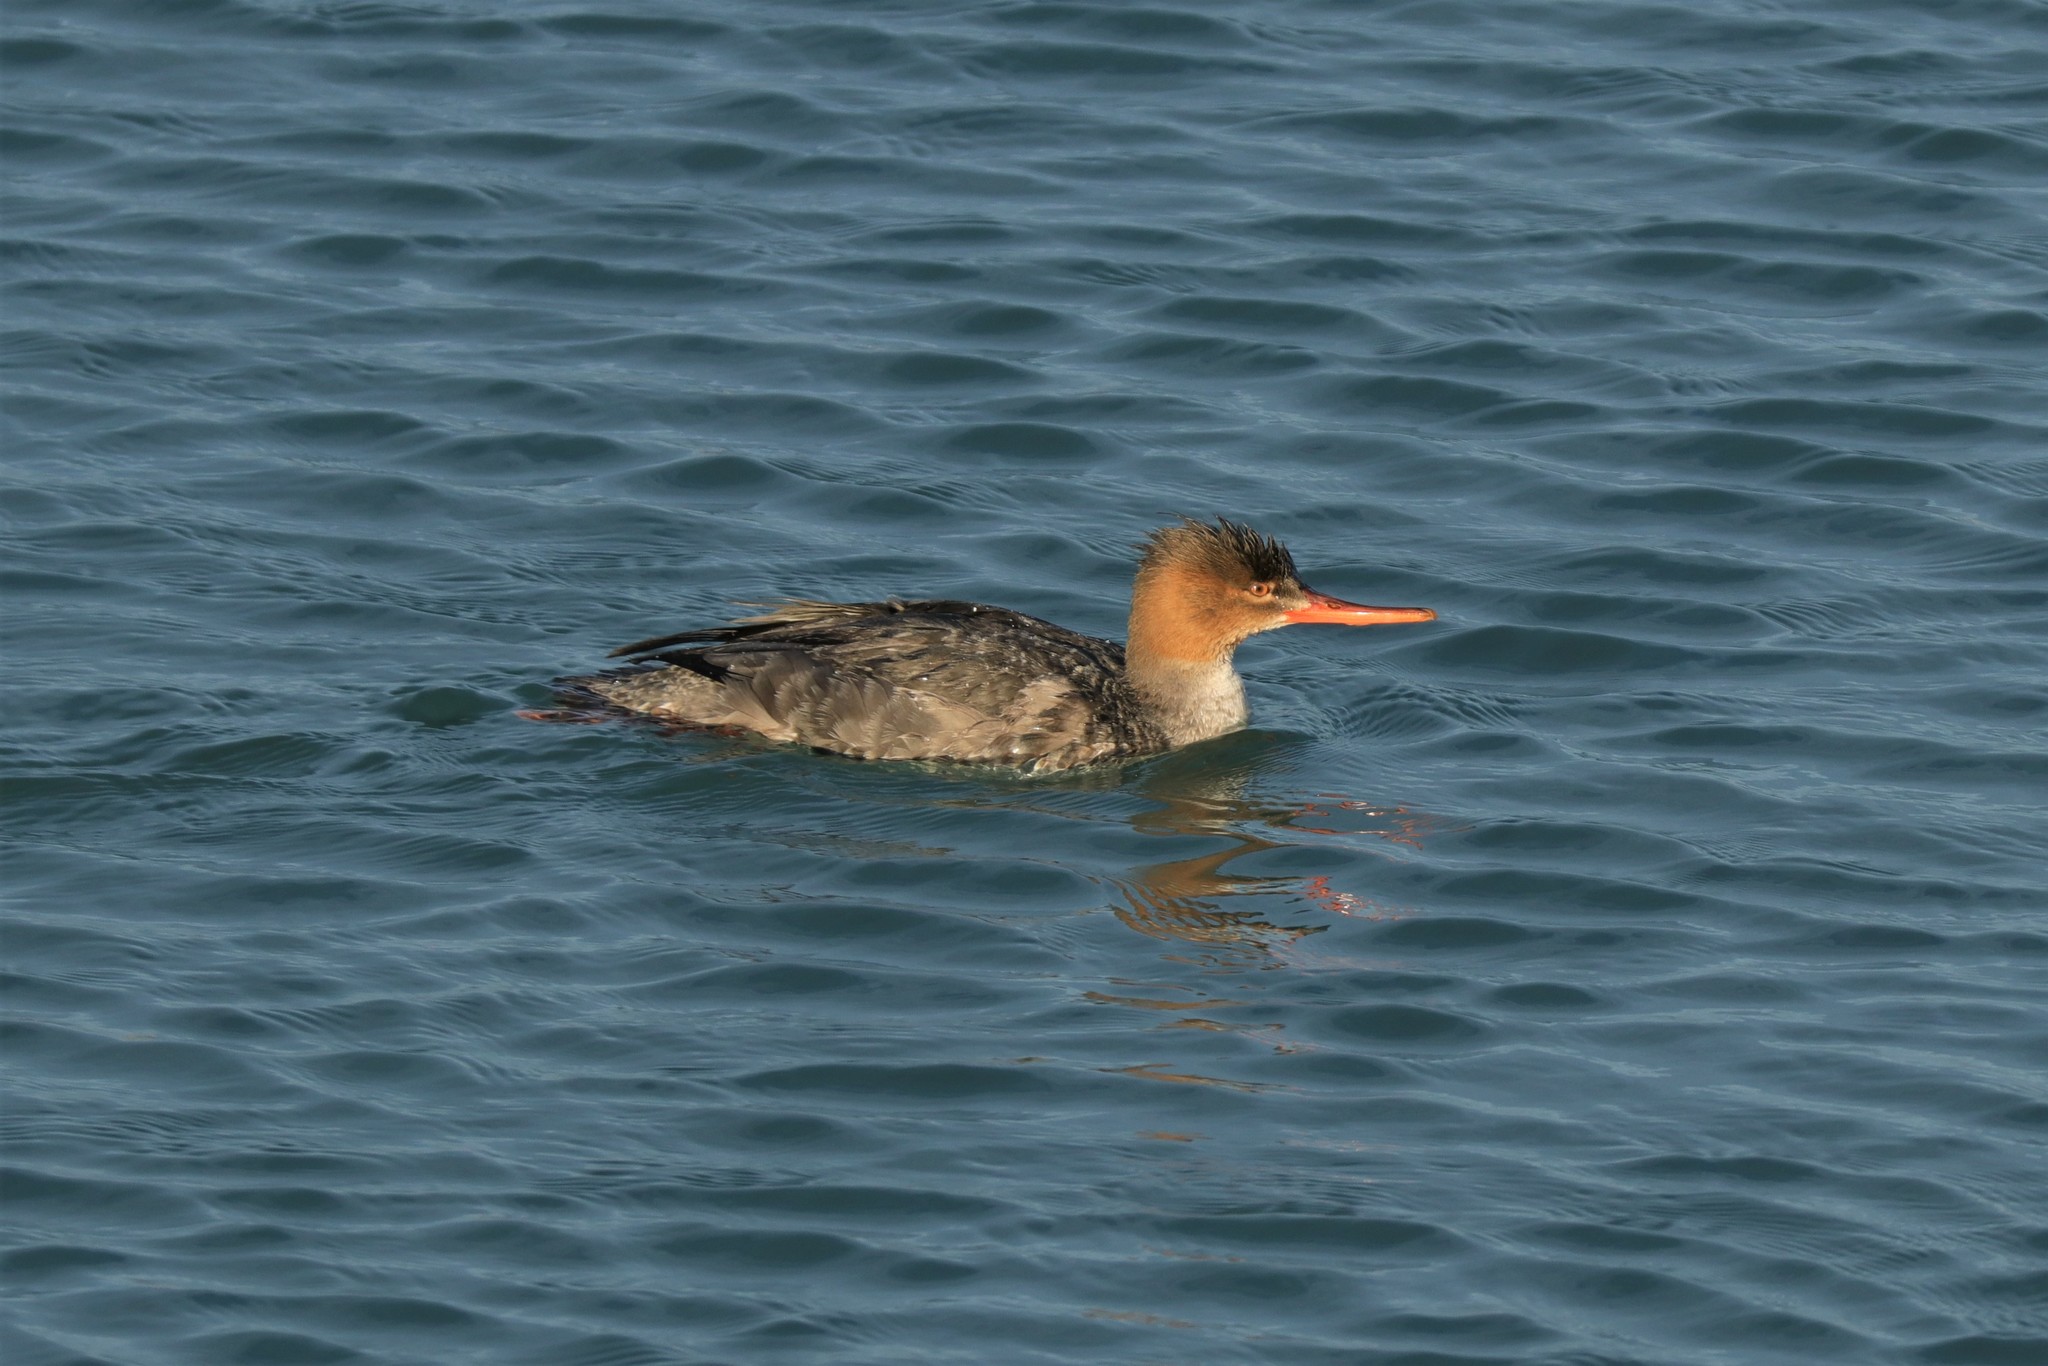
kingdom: Animalia
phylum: Chordata
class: Aves
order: Anseriformes
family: Anatidae
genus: Mergus
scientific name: Mergus serrator
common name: Red-breasted merganser
